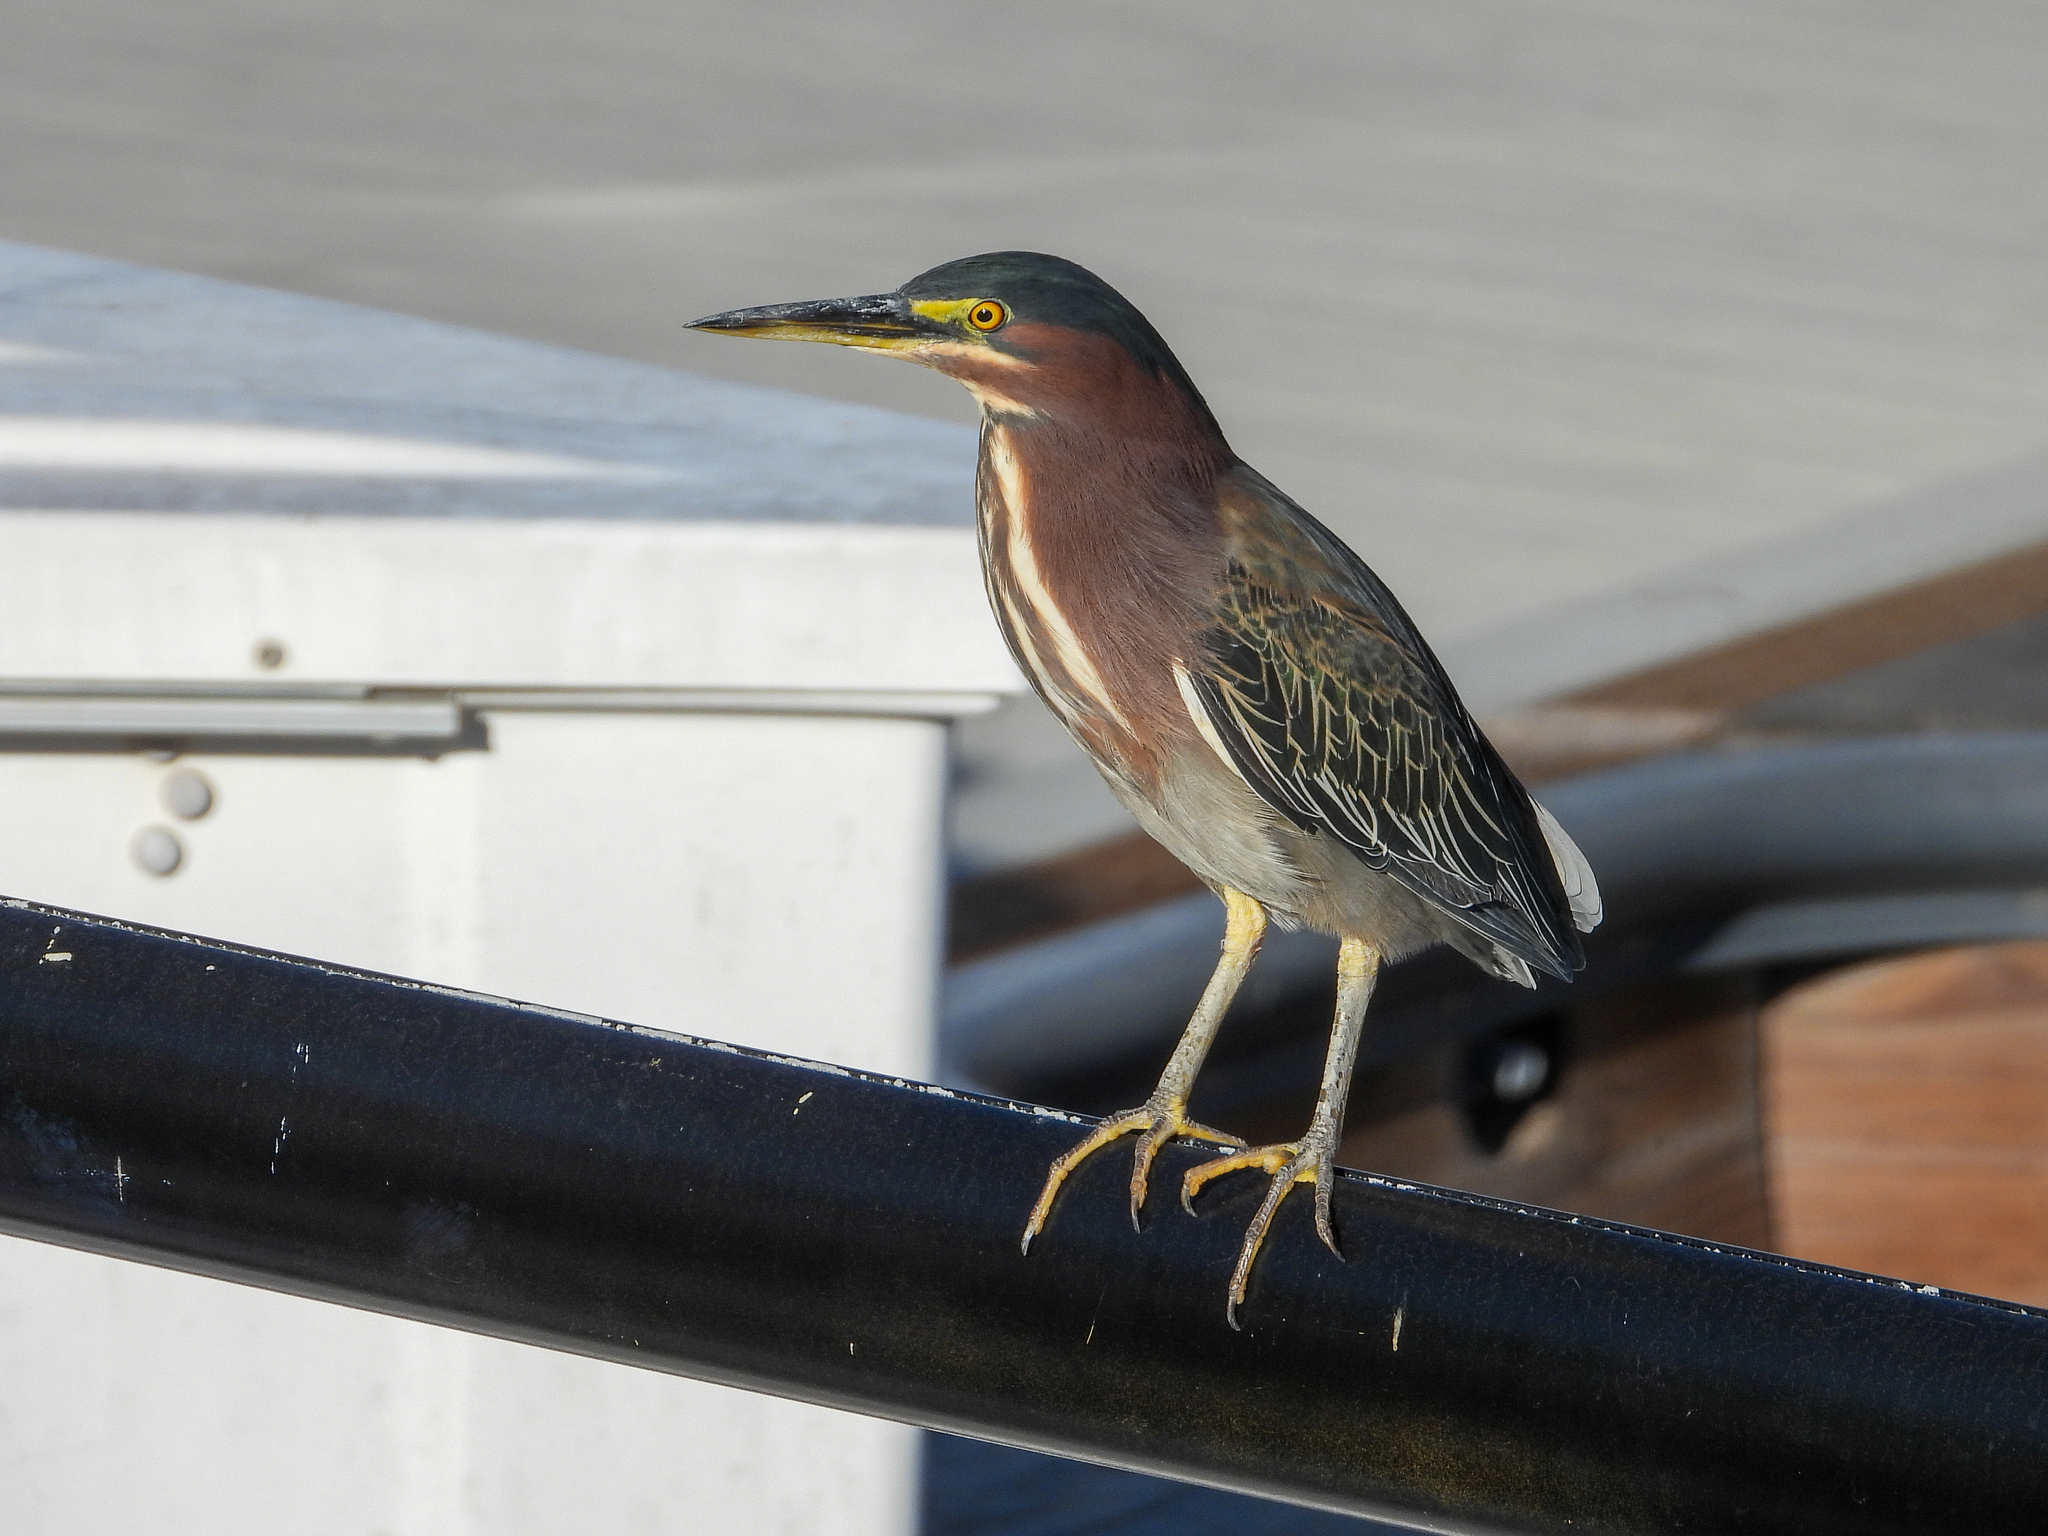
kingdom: Animalia
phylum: Chordata
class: Aves
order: Pelecaniformes
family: Ardeidae
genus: Butorides
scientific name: Butorides virescens
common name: Green heron
